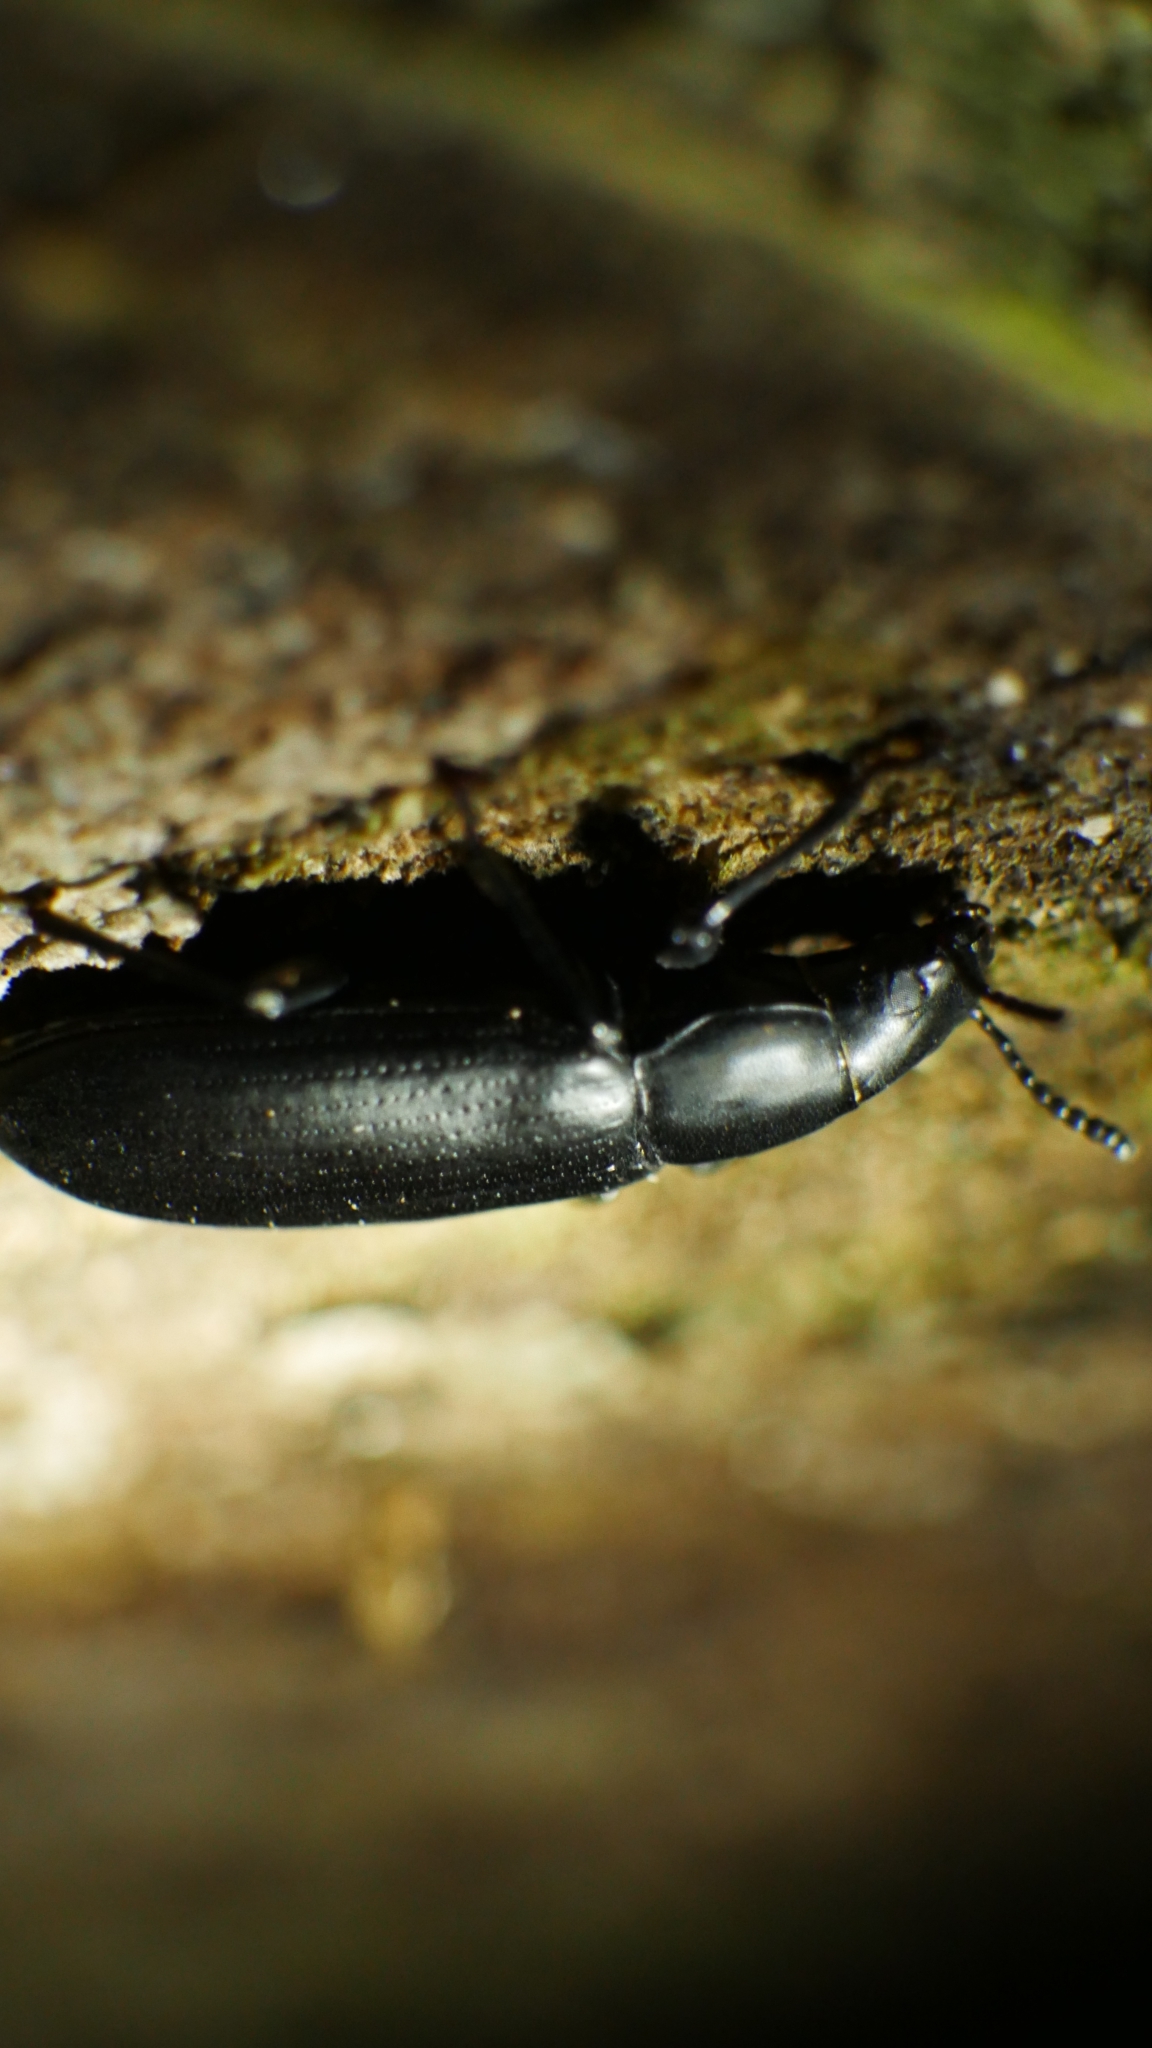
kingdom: Animalia
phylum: Arthropoda
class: Insecta
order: Coleoptera
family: Tenebrionidae
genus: Alobates
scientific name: Alobates
